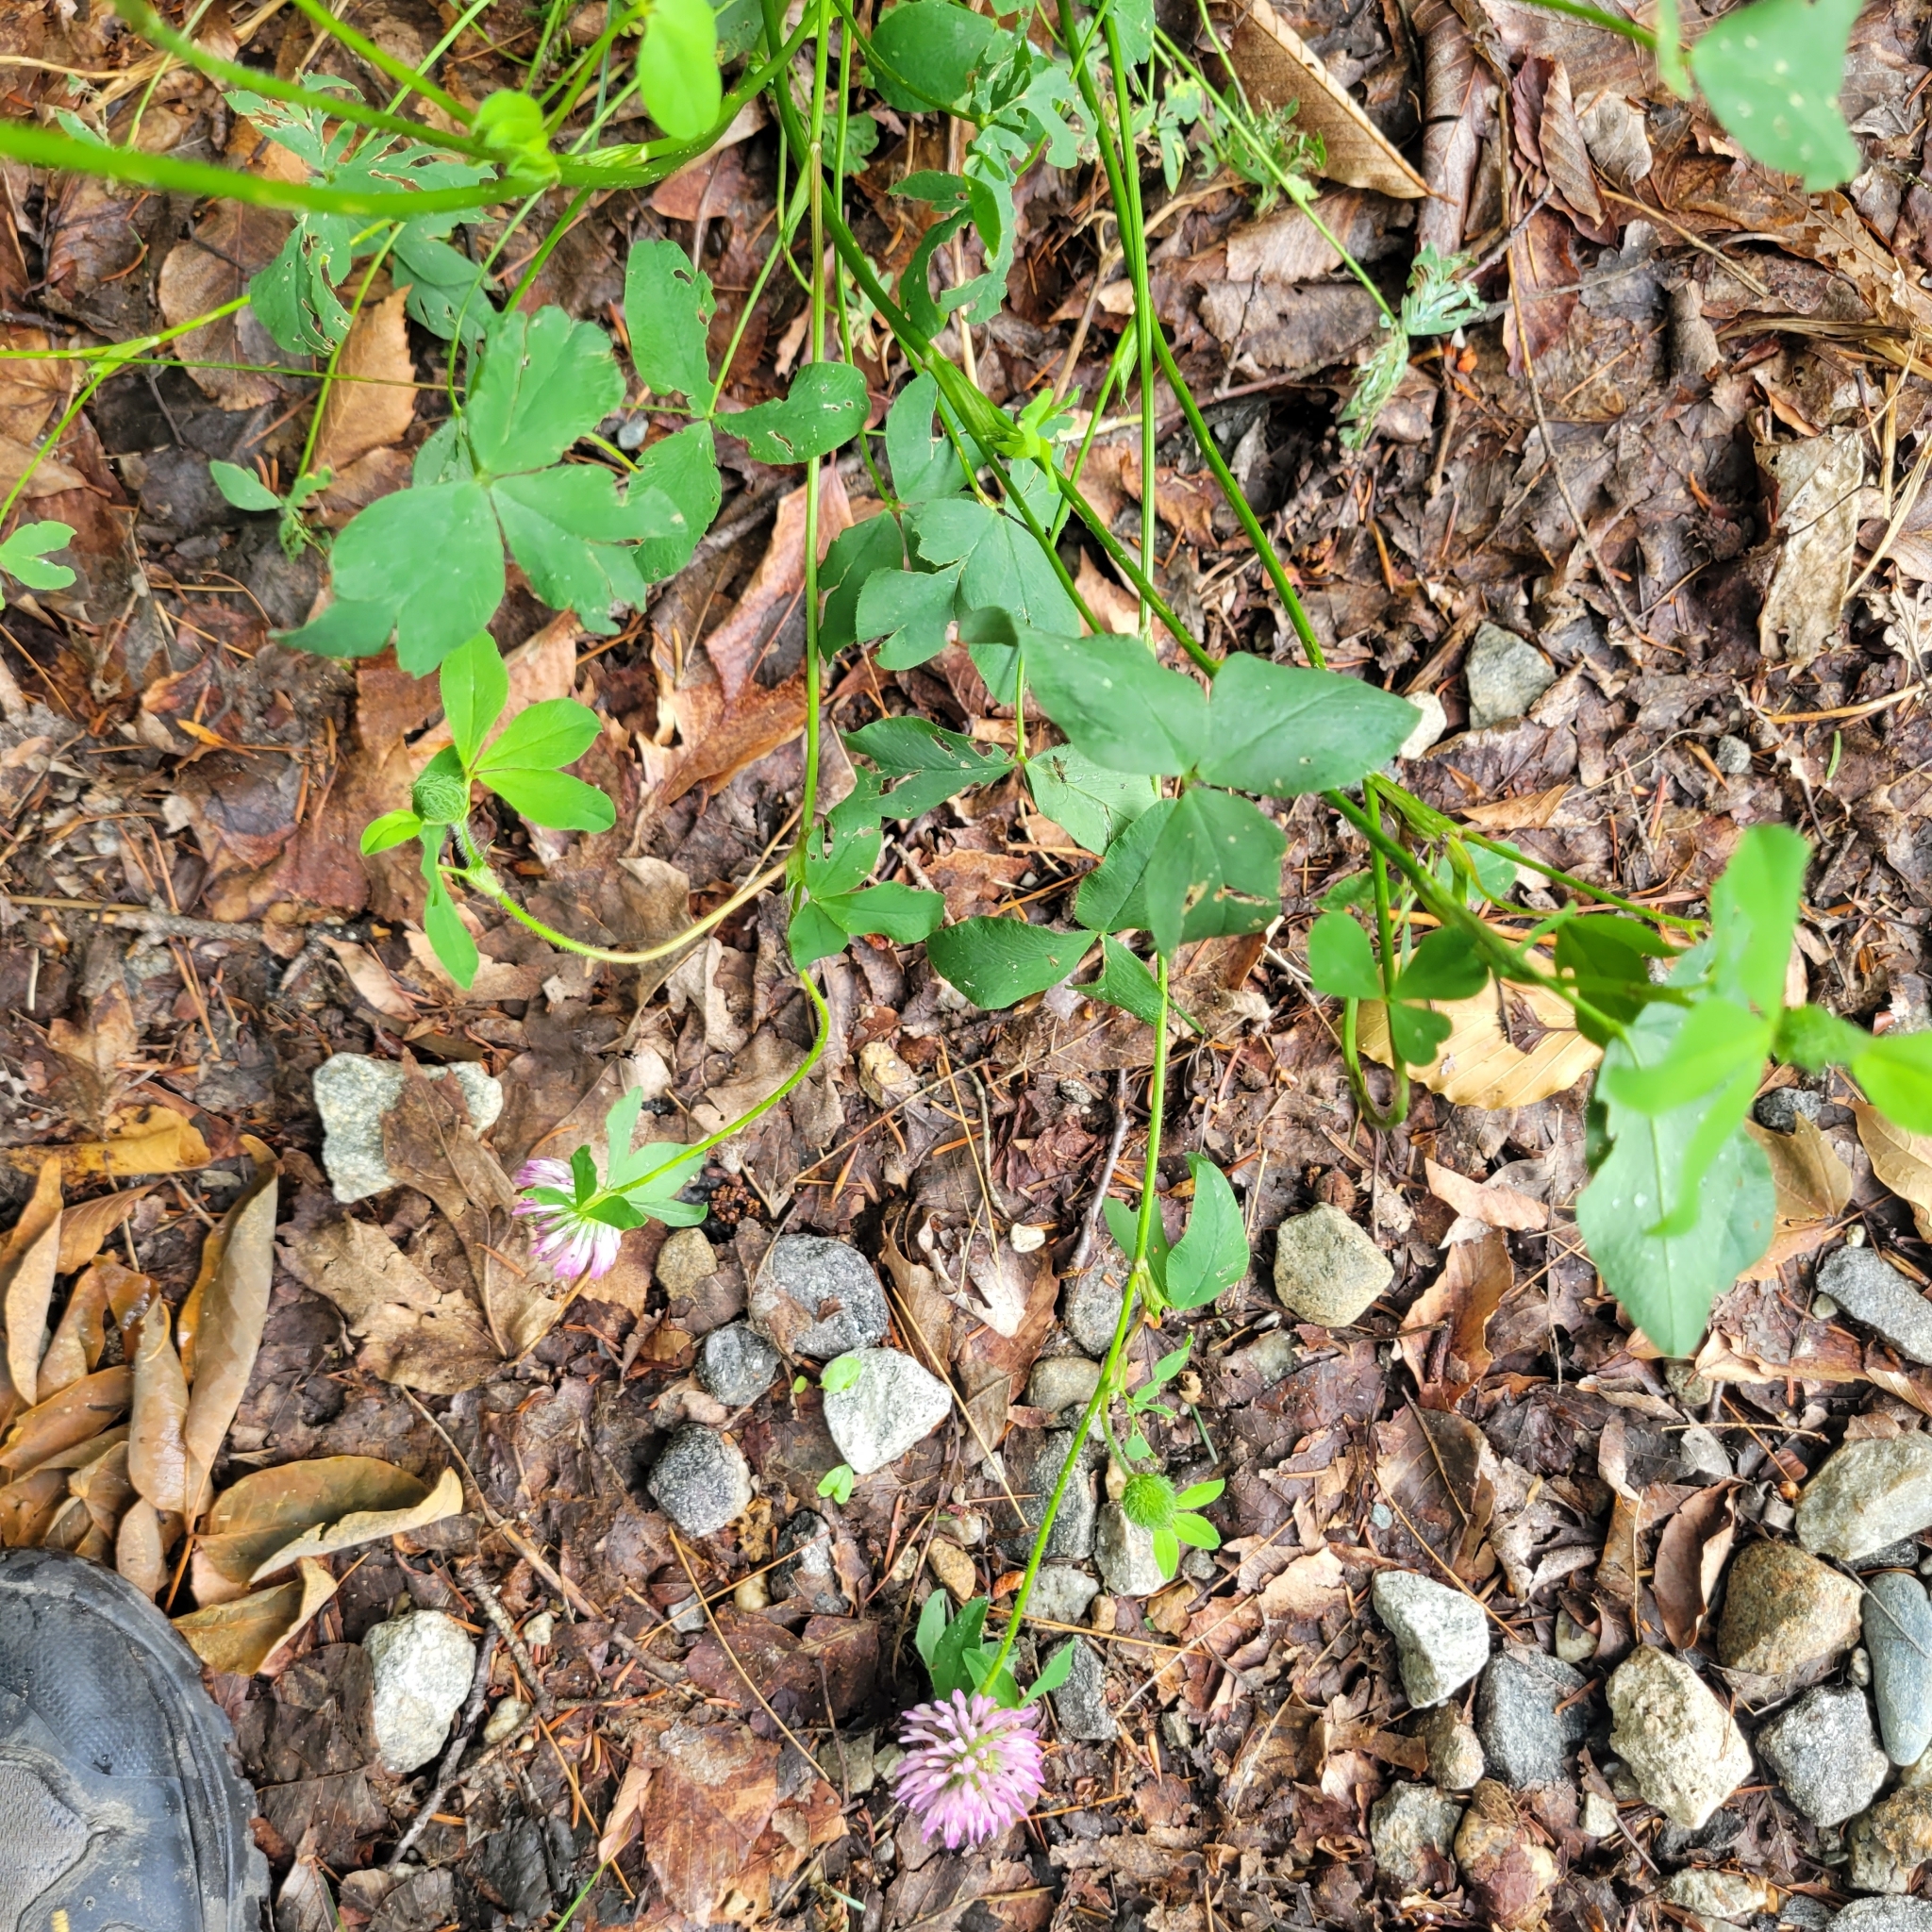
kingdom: Plantae
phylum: Tracheophyta
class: Magnoliopsida
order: Fabales
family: Fabaceae
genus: Trifolium
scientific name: Trifolium pratense
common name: Red clover
